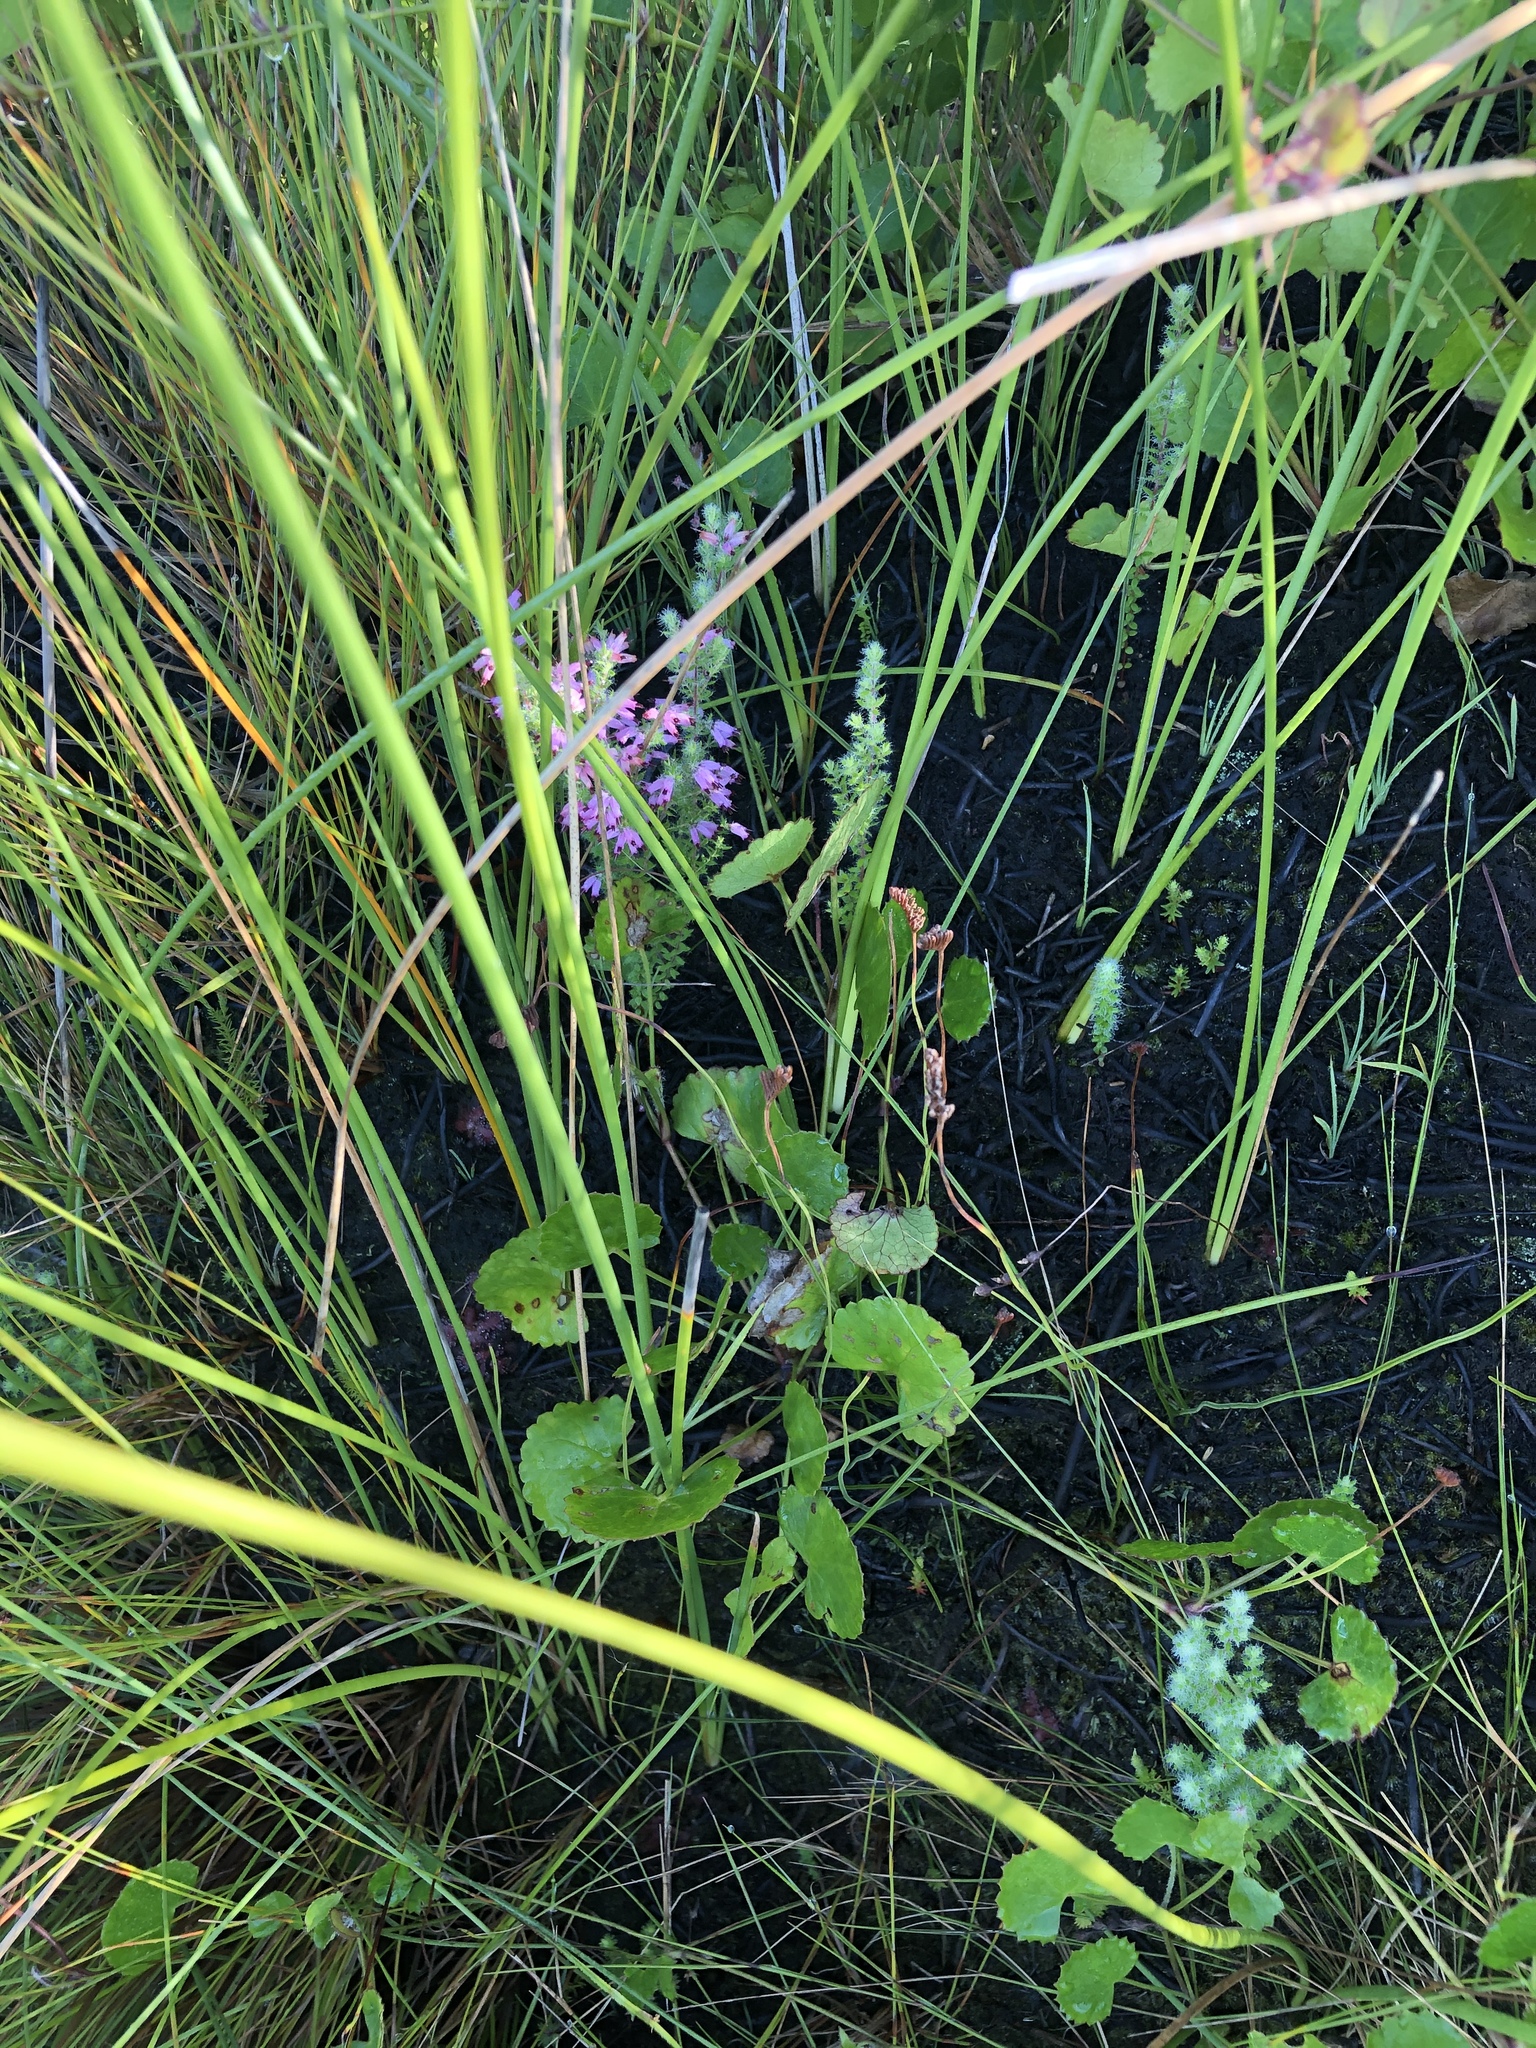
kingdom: Plantae
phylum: Tracheophyta
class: Magnoliopsida
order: Ericales
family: Ericaceae
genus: Erica
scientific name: Erica longimontana
